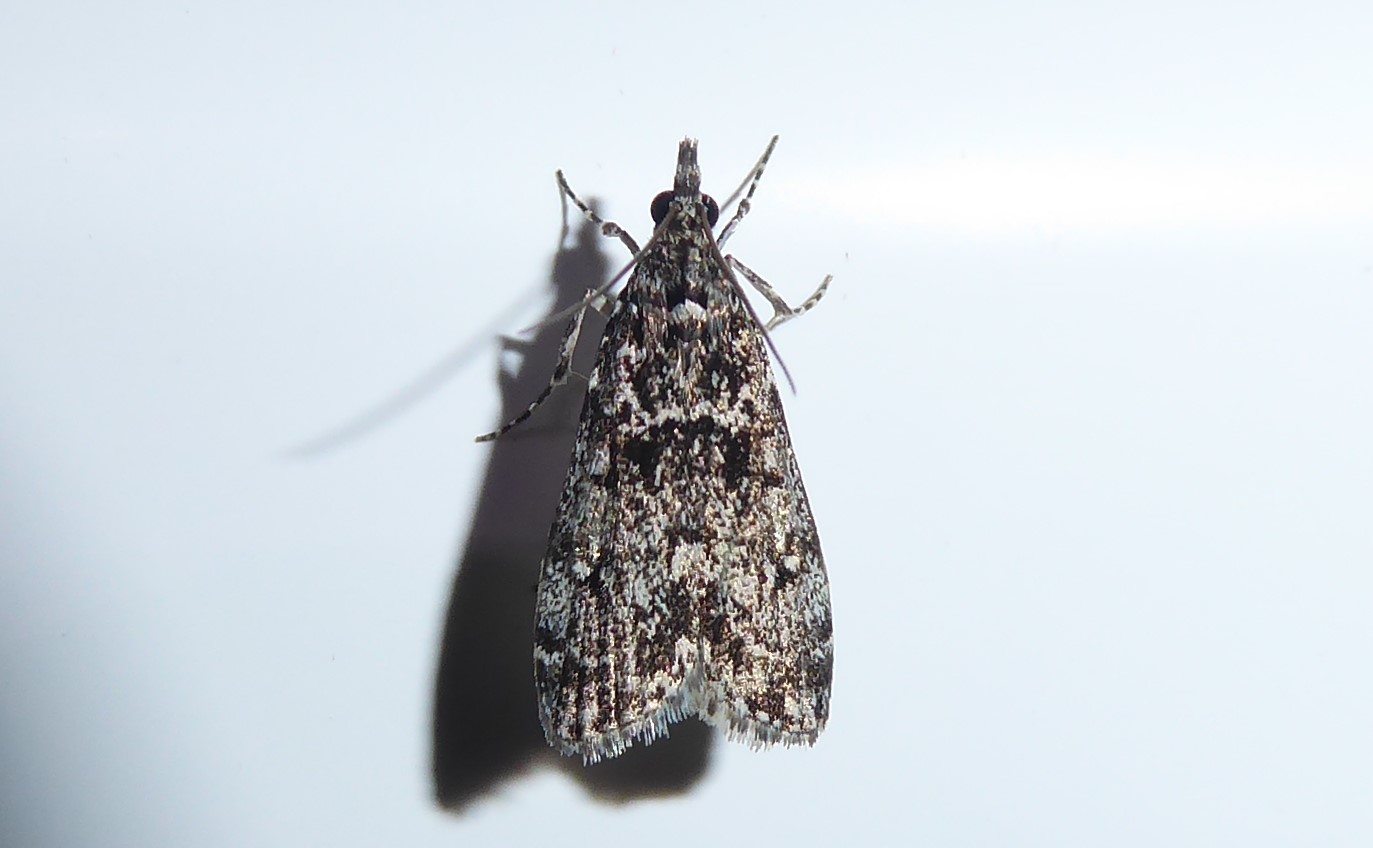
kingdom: Animalia
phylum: Arthropoda
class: Insecta
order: Lepidoptera
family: Crambidae
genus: Eudonia
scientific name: Eudonia philerga
